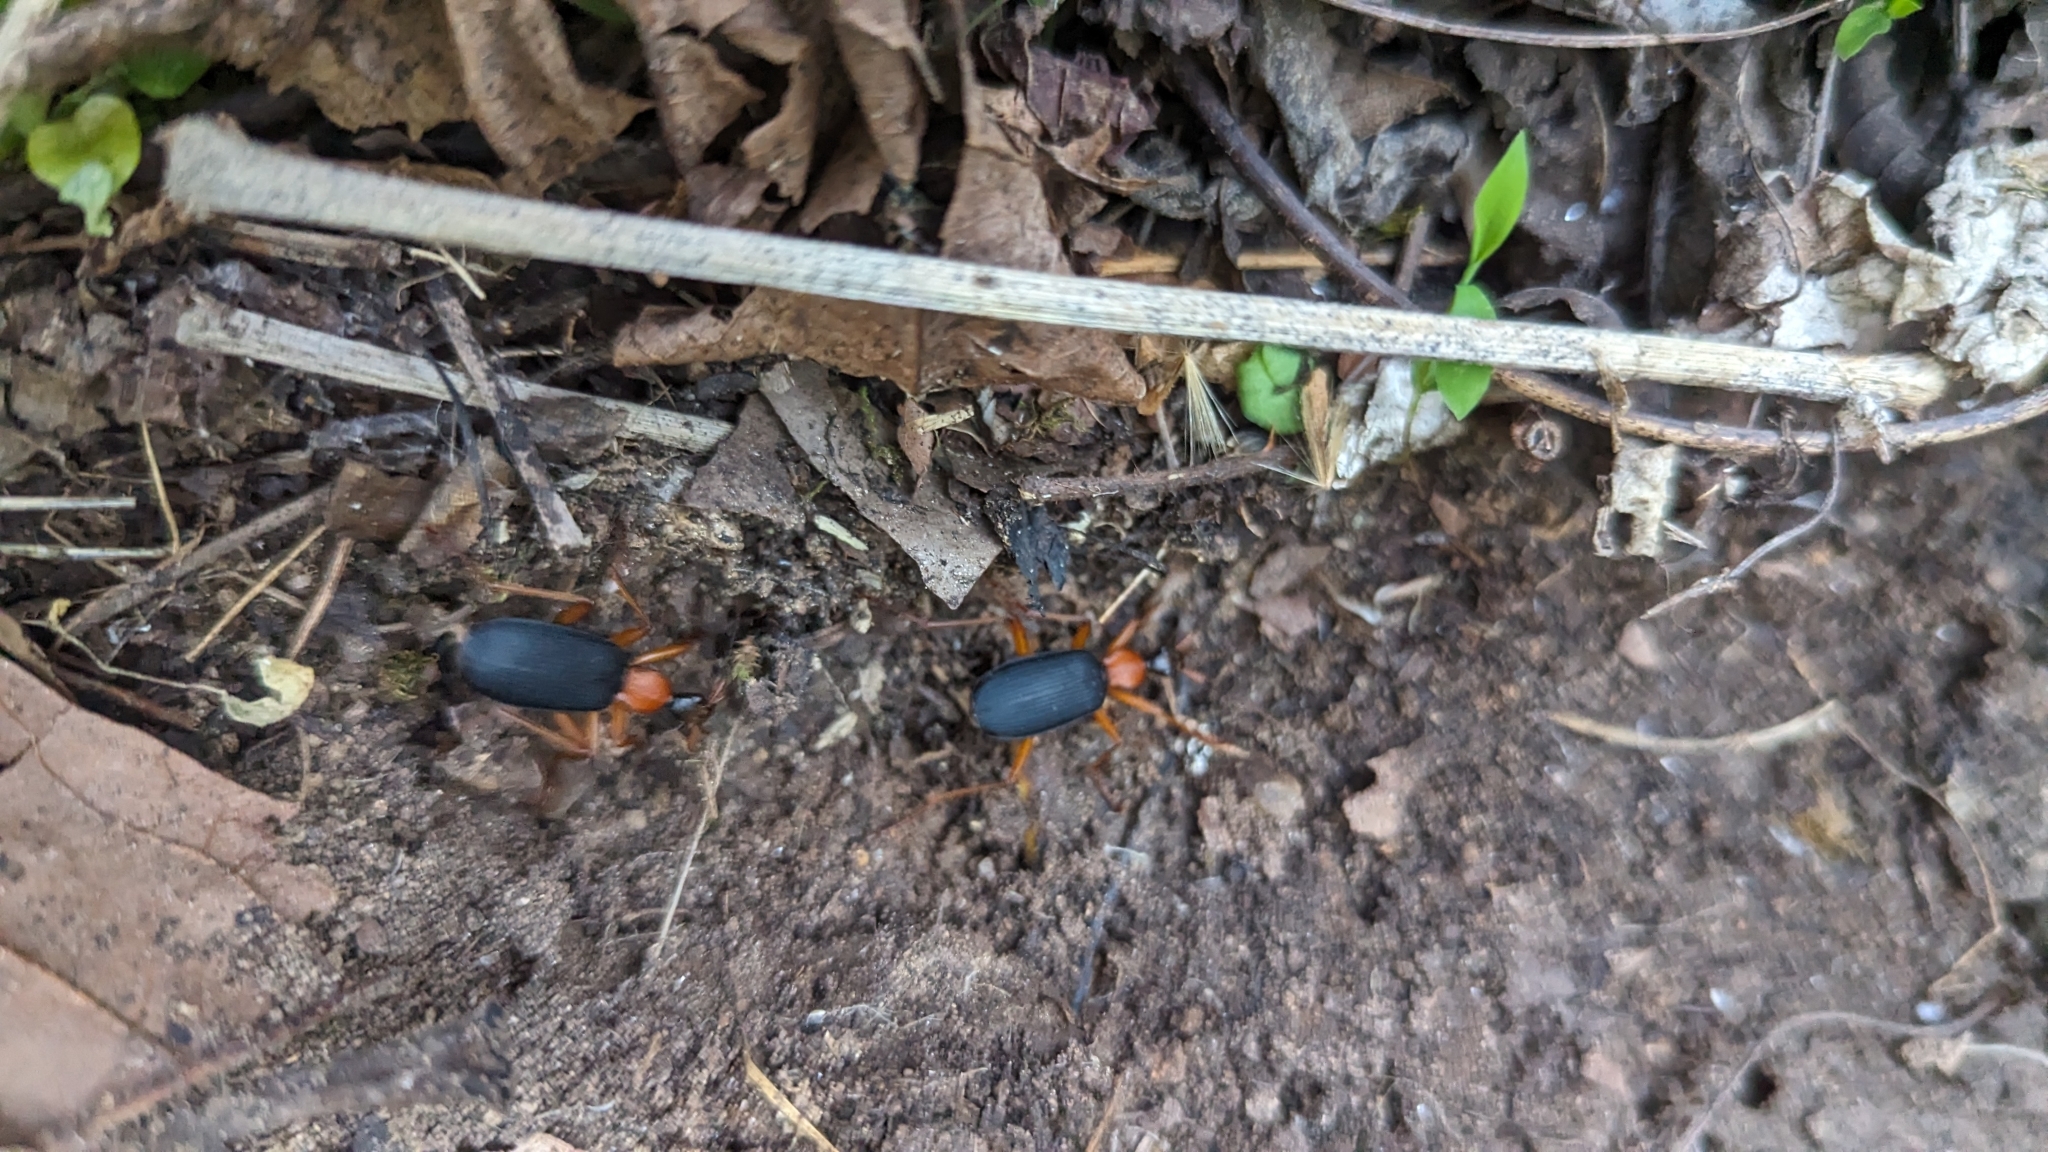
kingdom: Animalia
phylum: Arthropoda
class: Insecta
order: Coleoptera
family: Carabidae
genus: Galerita
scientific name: Galerita bicolor
